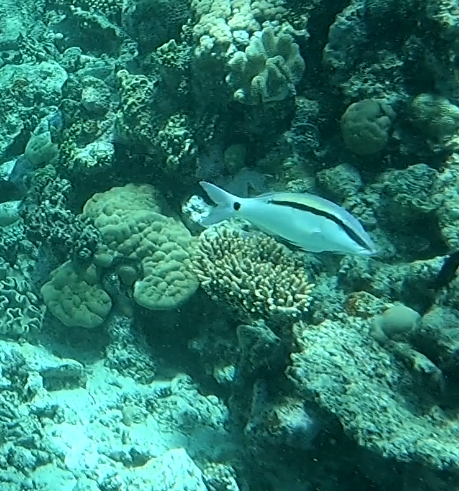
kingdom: Animalia
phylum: Chordata
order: Perciformes
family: Mullidae
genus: Parupeneus
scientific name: Parupeneus barberinus
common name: Dash-and-dot goatfish
